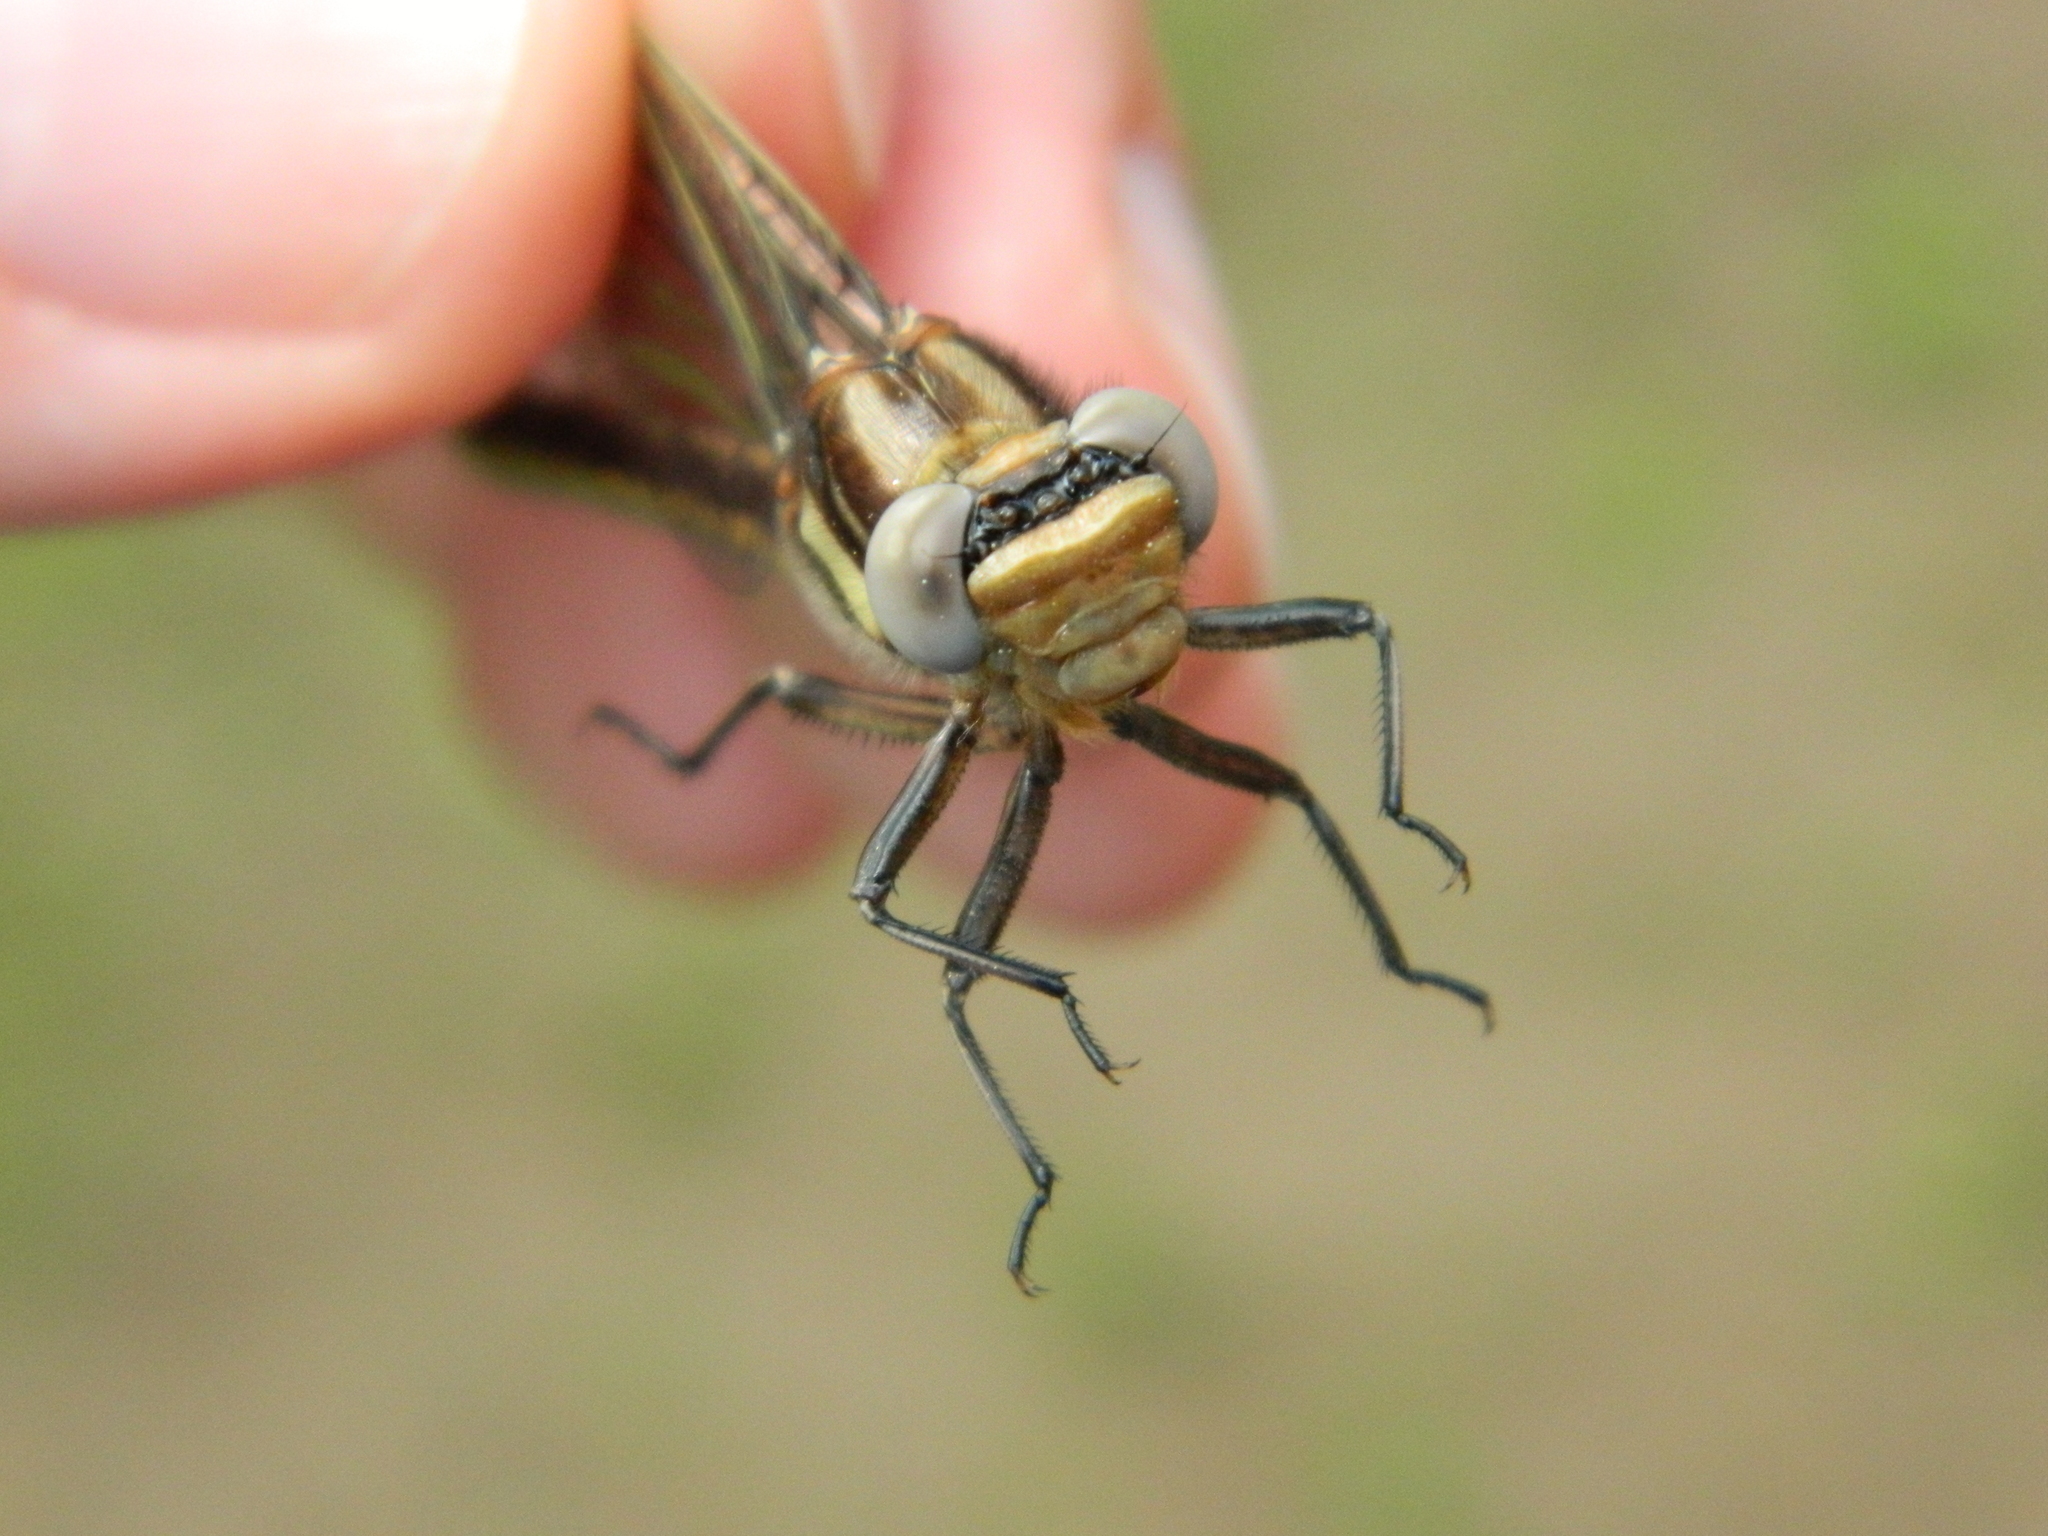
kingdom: Animalia
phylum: Arthropoda
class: Insecta
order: Odonata
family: Gomphidae
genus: Phanogomphus
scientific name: Phanogomphus spicatus
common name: Dusky clubtail
